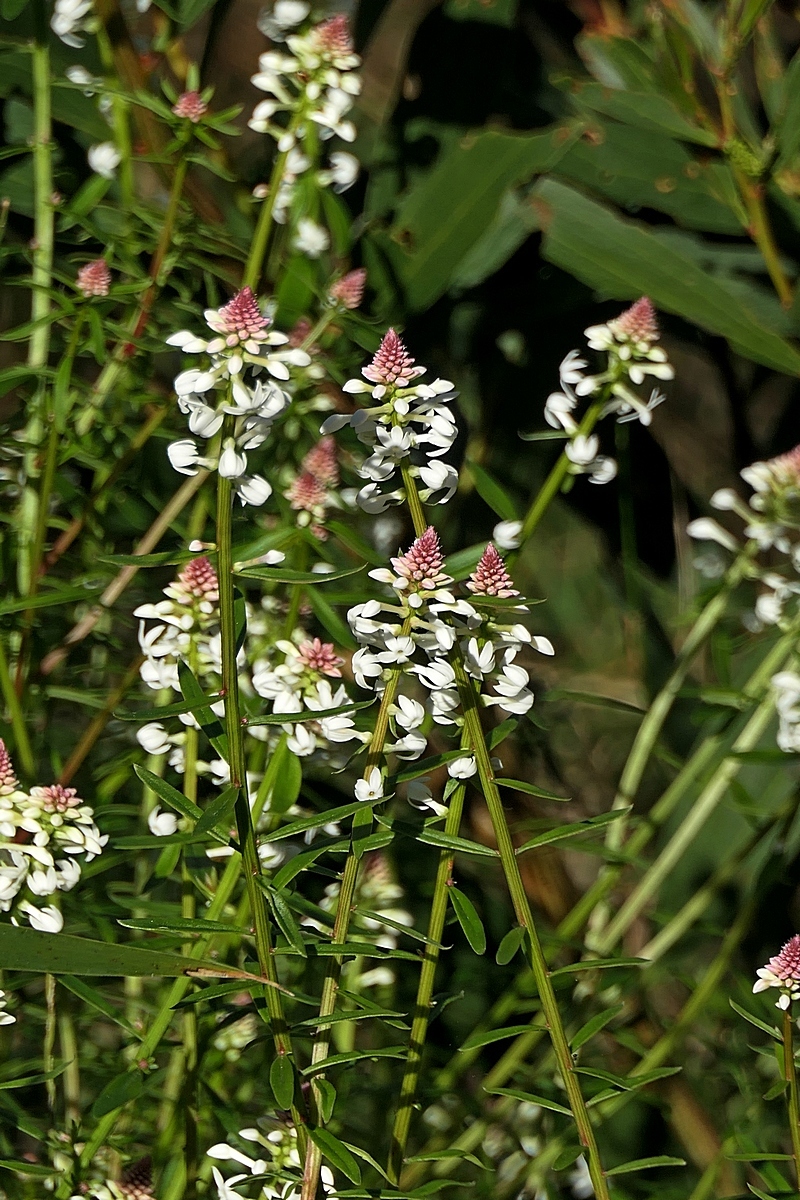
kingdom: Plantae
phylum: Tracheophyta
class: Magnoliopsida
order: Celastrales
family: Celastraceae
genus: Stackhousia
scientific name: Stackhousia monogyna
